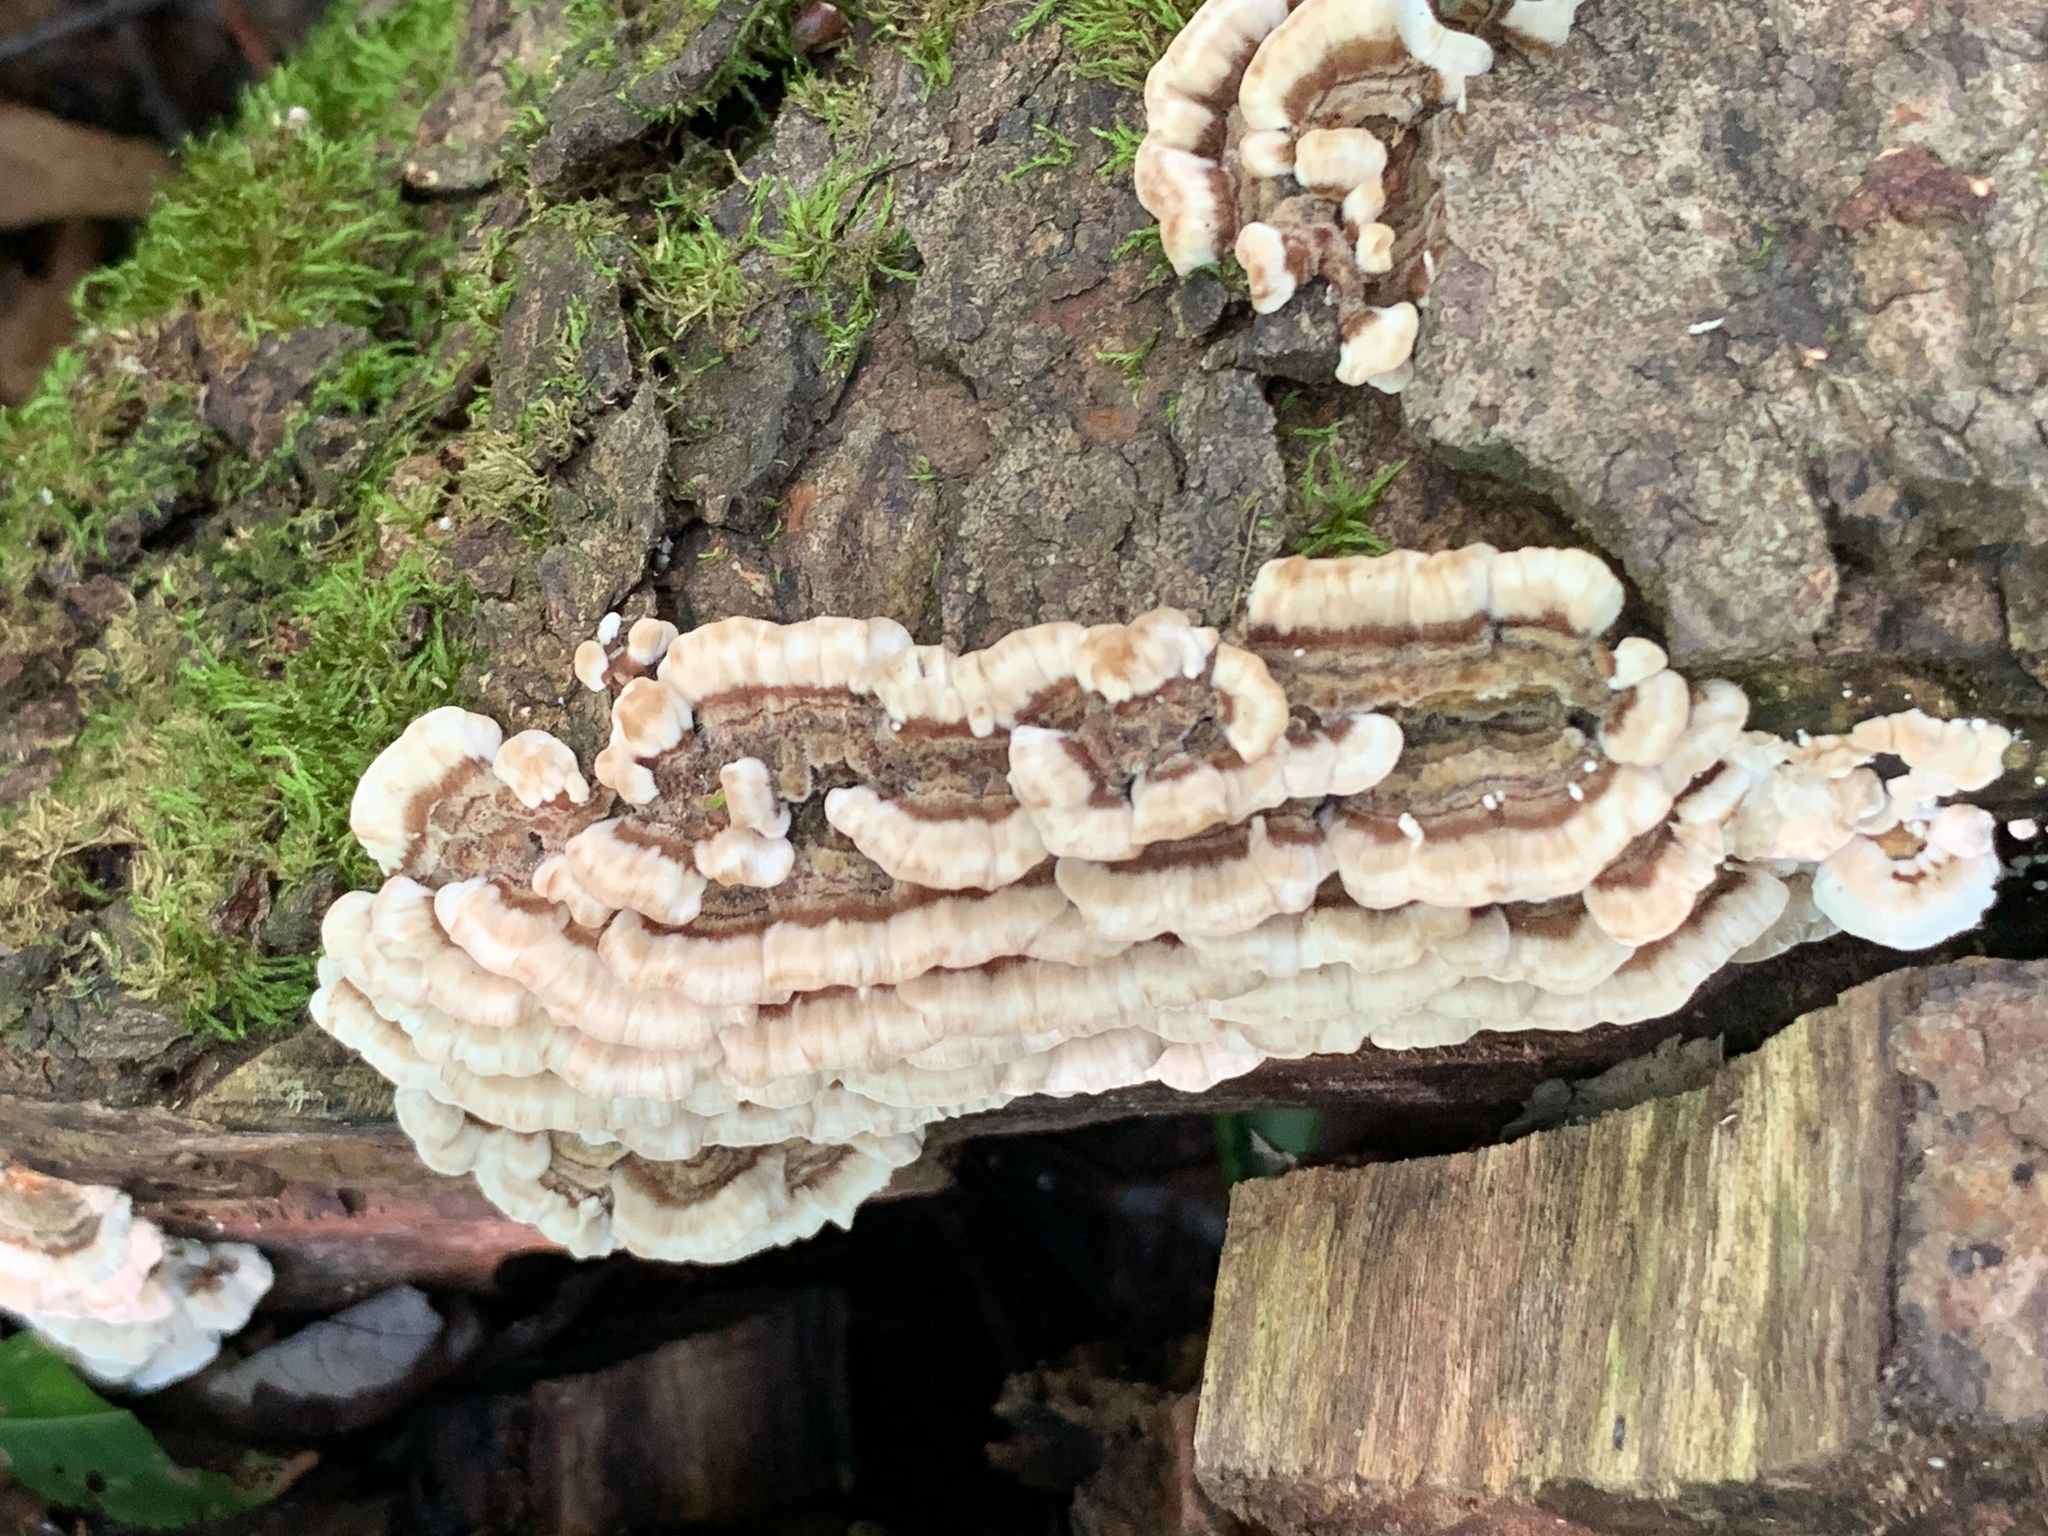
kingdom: Fungi
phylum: Basidiomycota
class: Agaricomycetes
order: Polyporales
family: Polyporaceae
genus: Trametes
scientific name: Trametes versicolor
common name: Turkeytail
